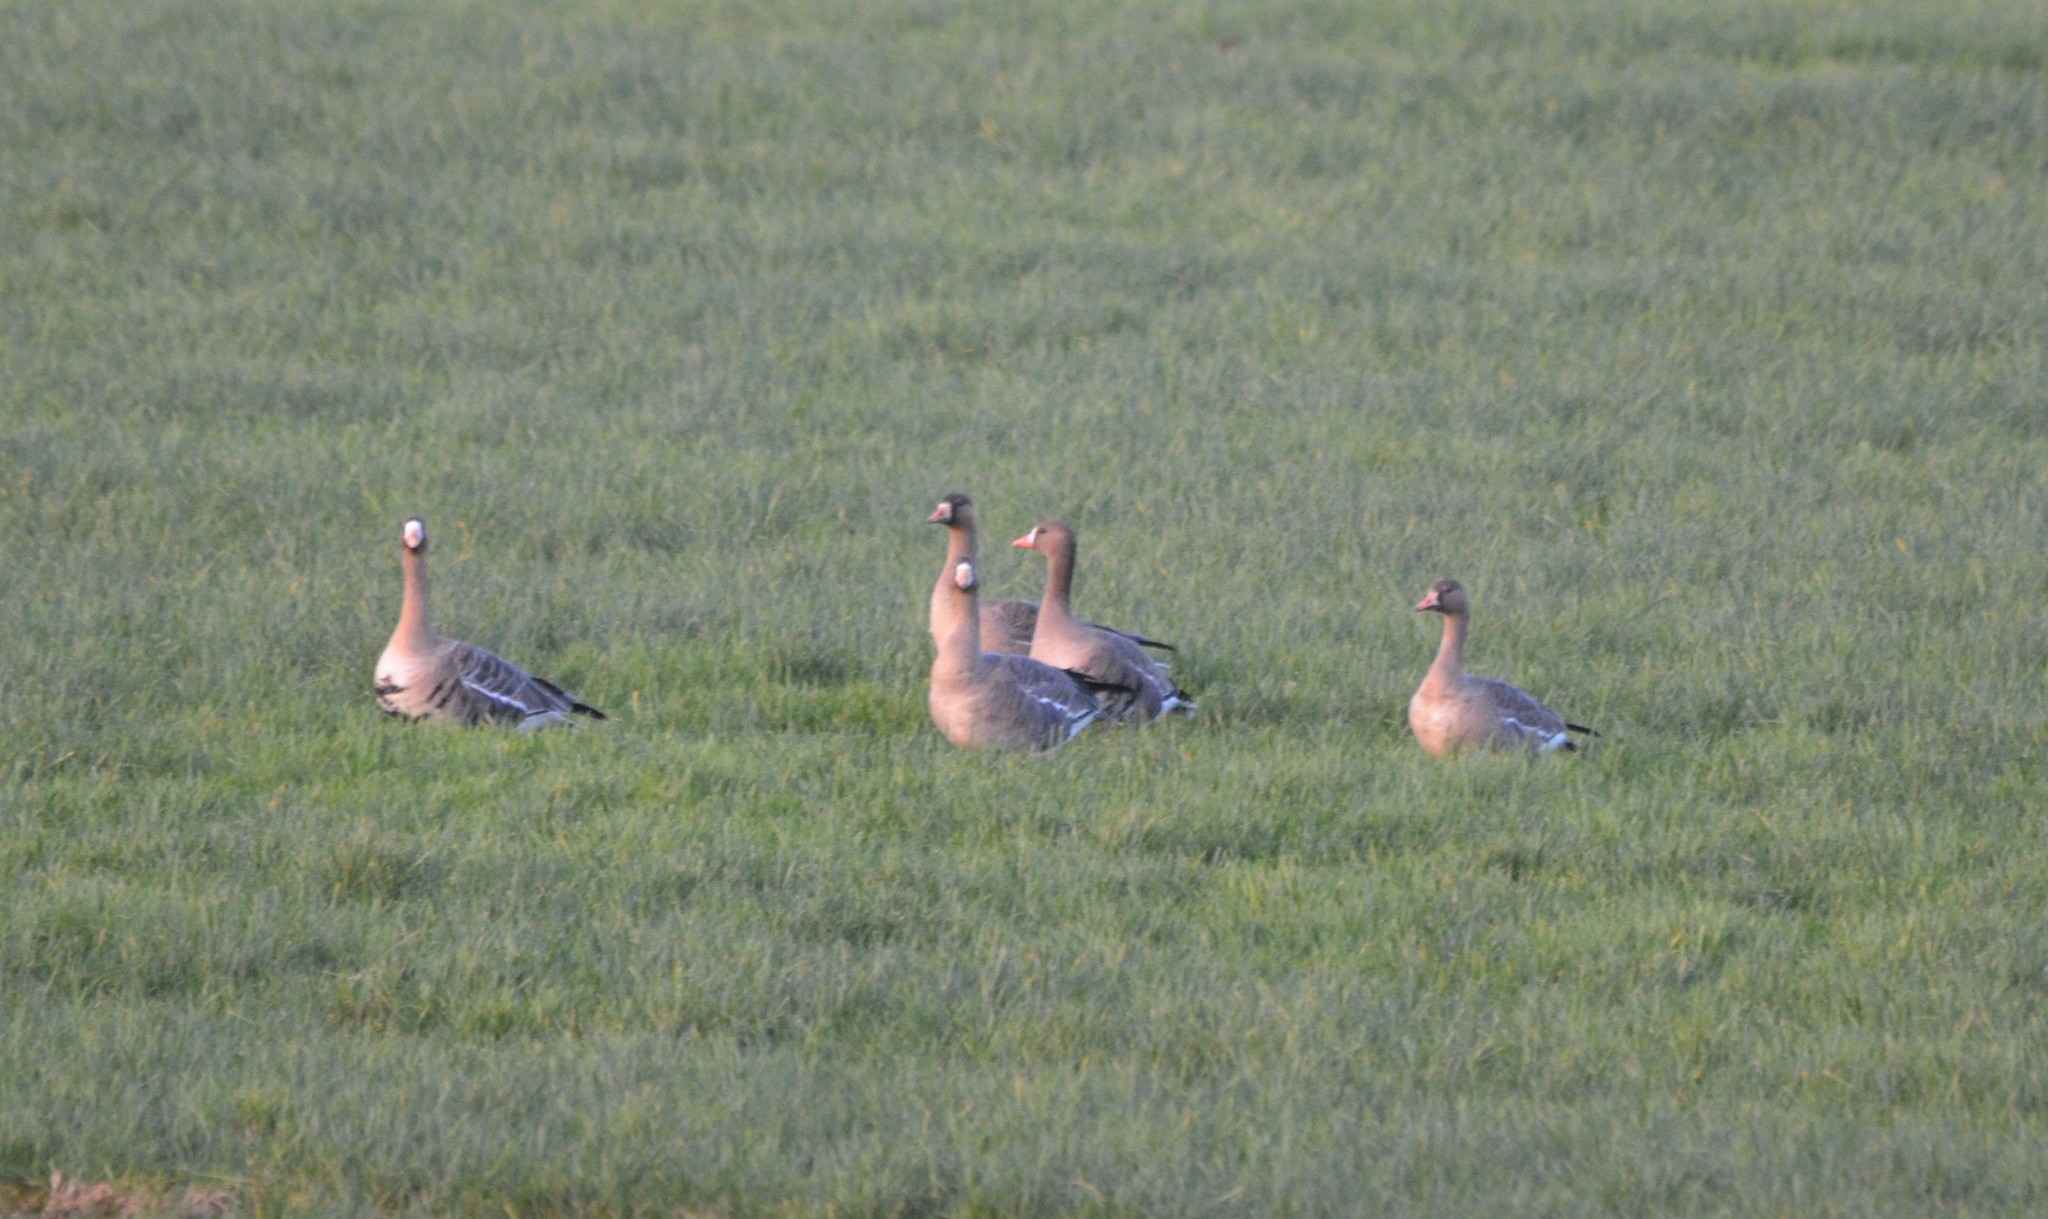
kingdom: Animalia
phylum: Chordata
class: Aves
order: Anseriformes
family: Anatidae
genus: Anser
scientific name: Anser albifrons
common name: Greater white-fronted goose
